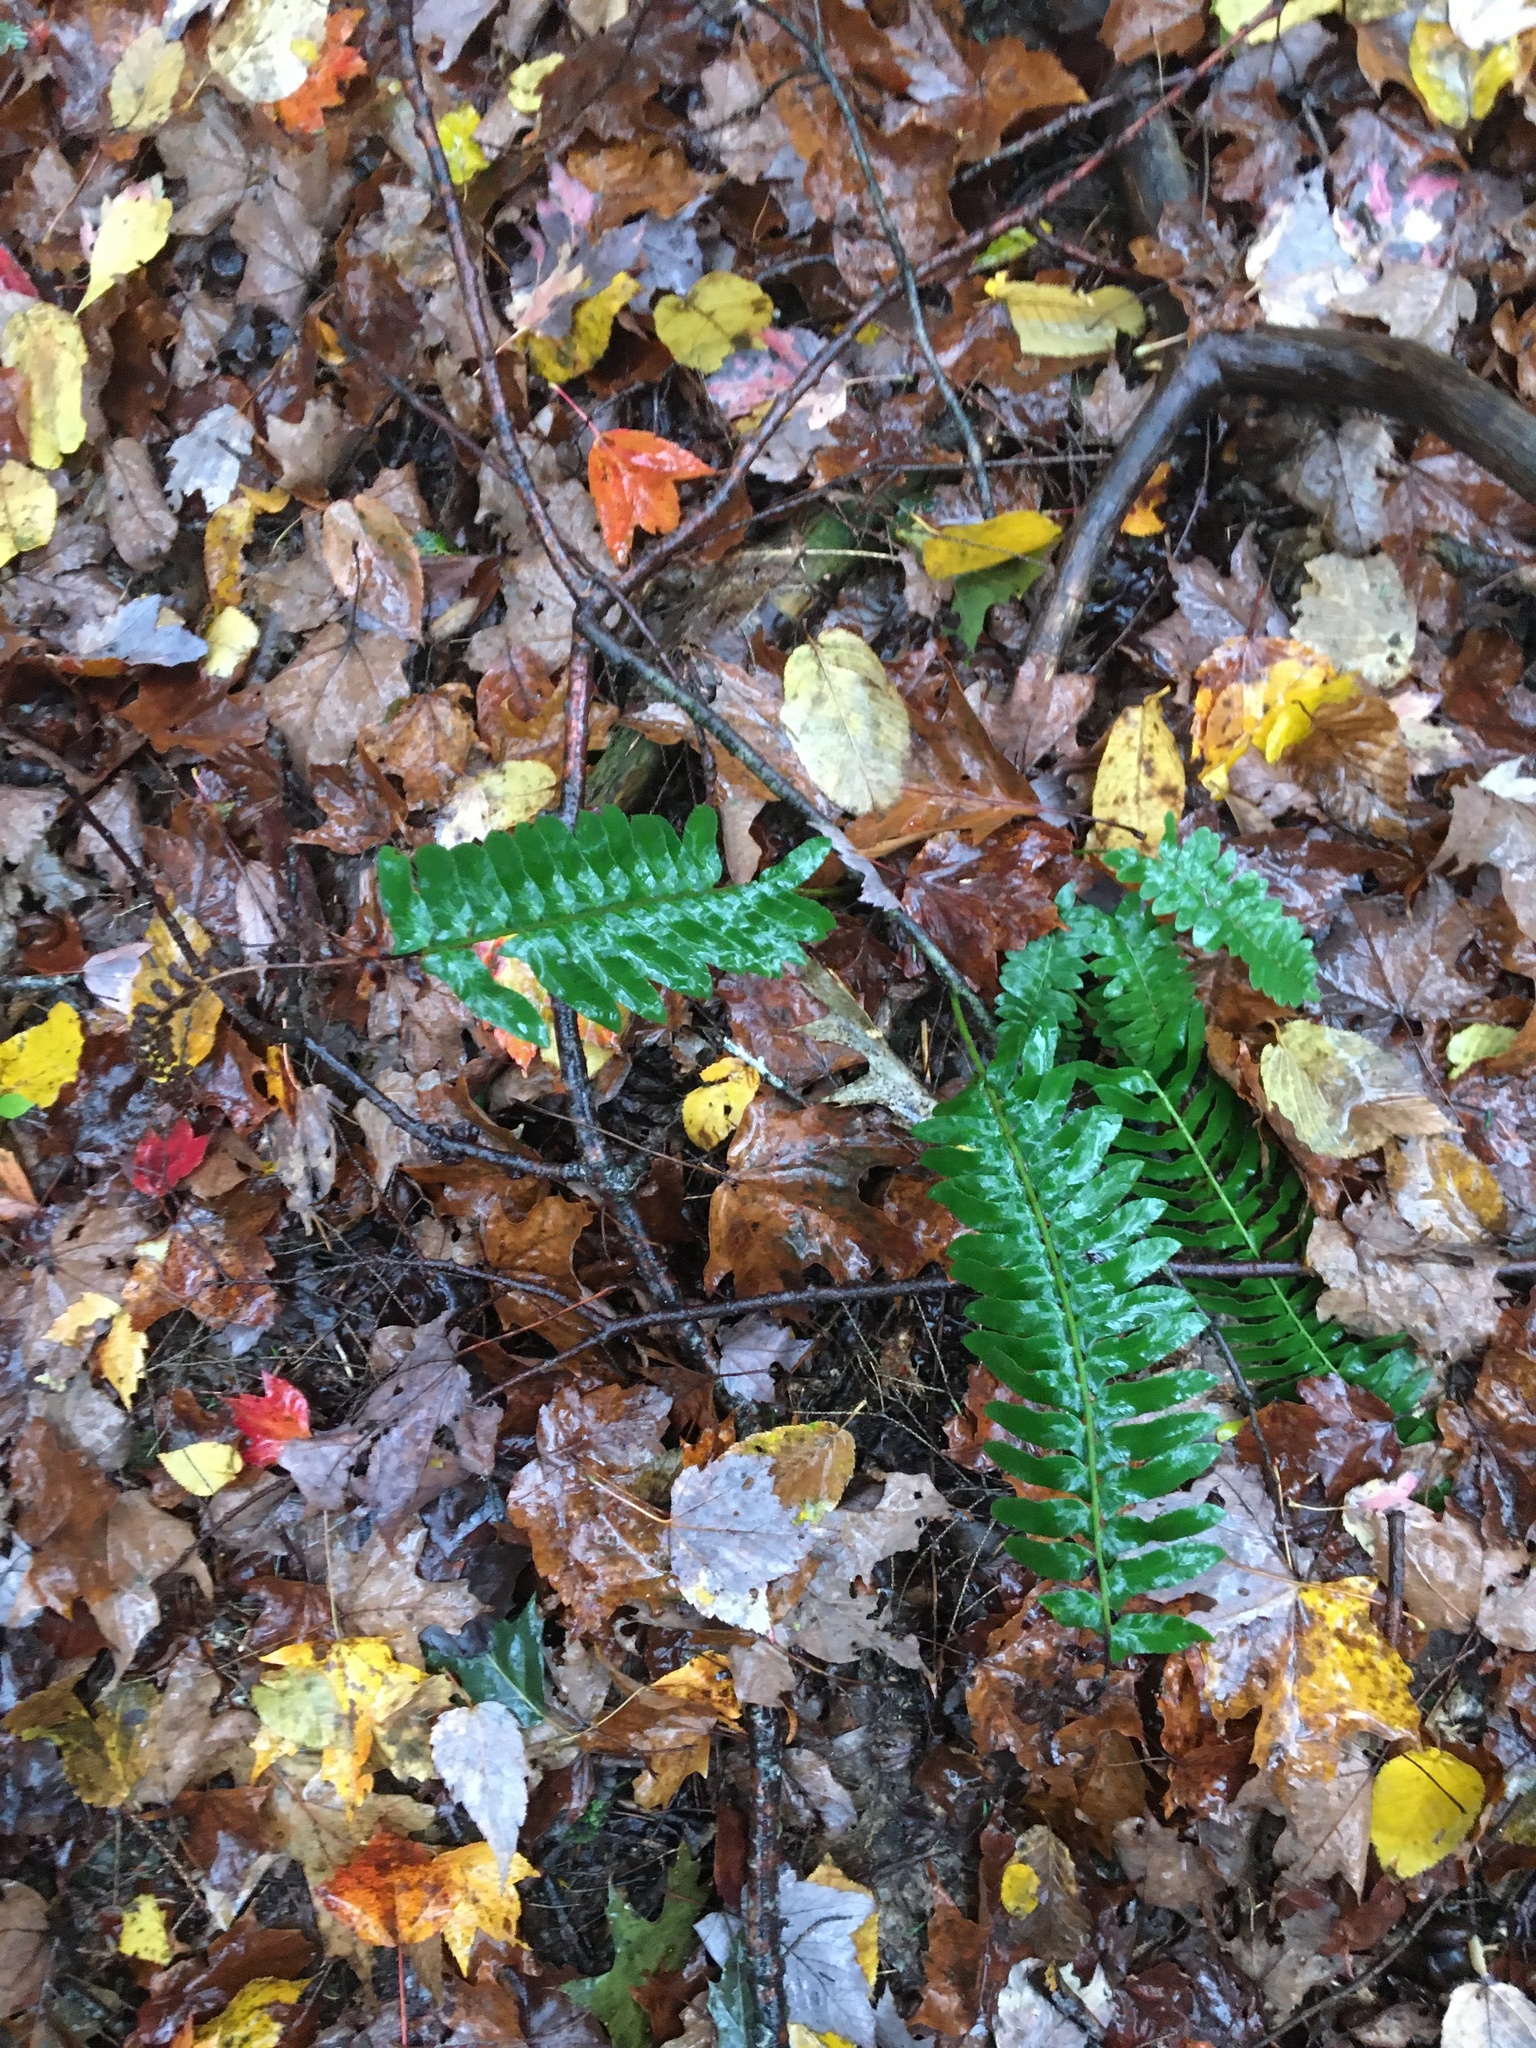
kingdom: Plantae
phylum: Tracheophyta
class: Polypodiopsida
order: Polypodiales
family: Dryopteridaceae
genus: Polystichum
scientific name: Polystichum acrostichoides
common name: Christmas fern
